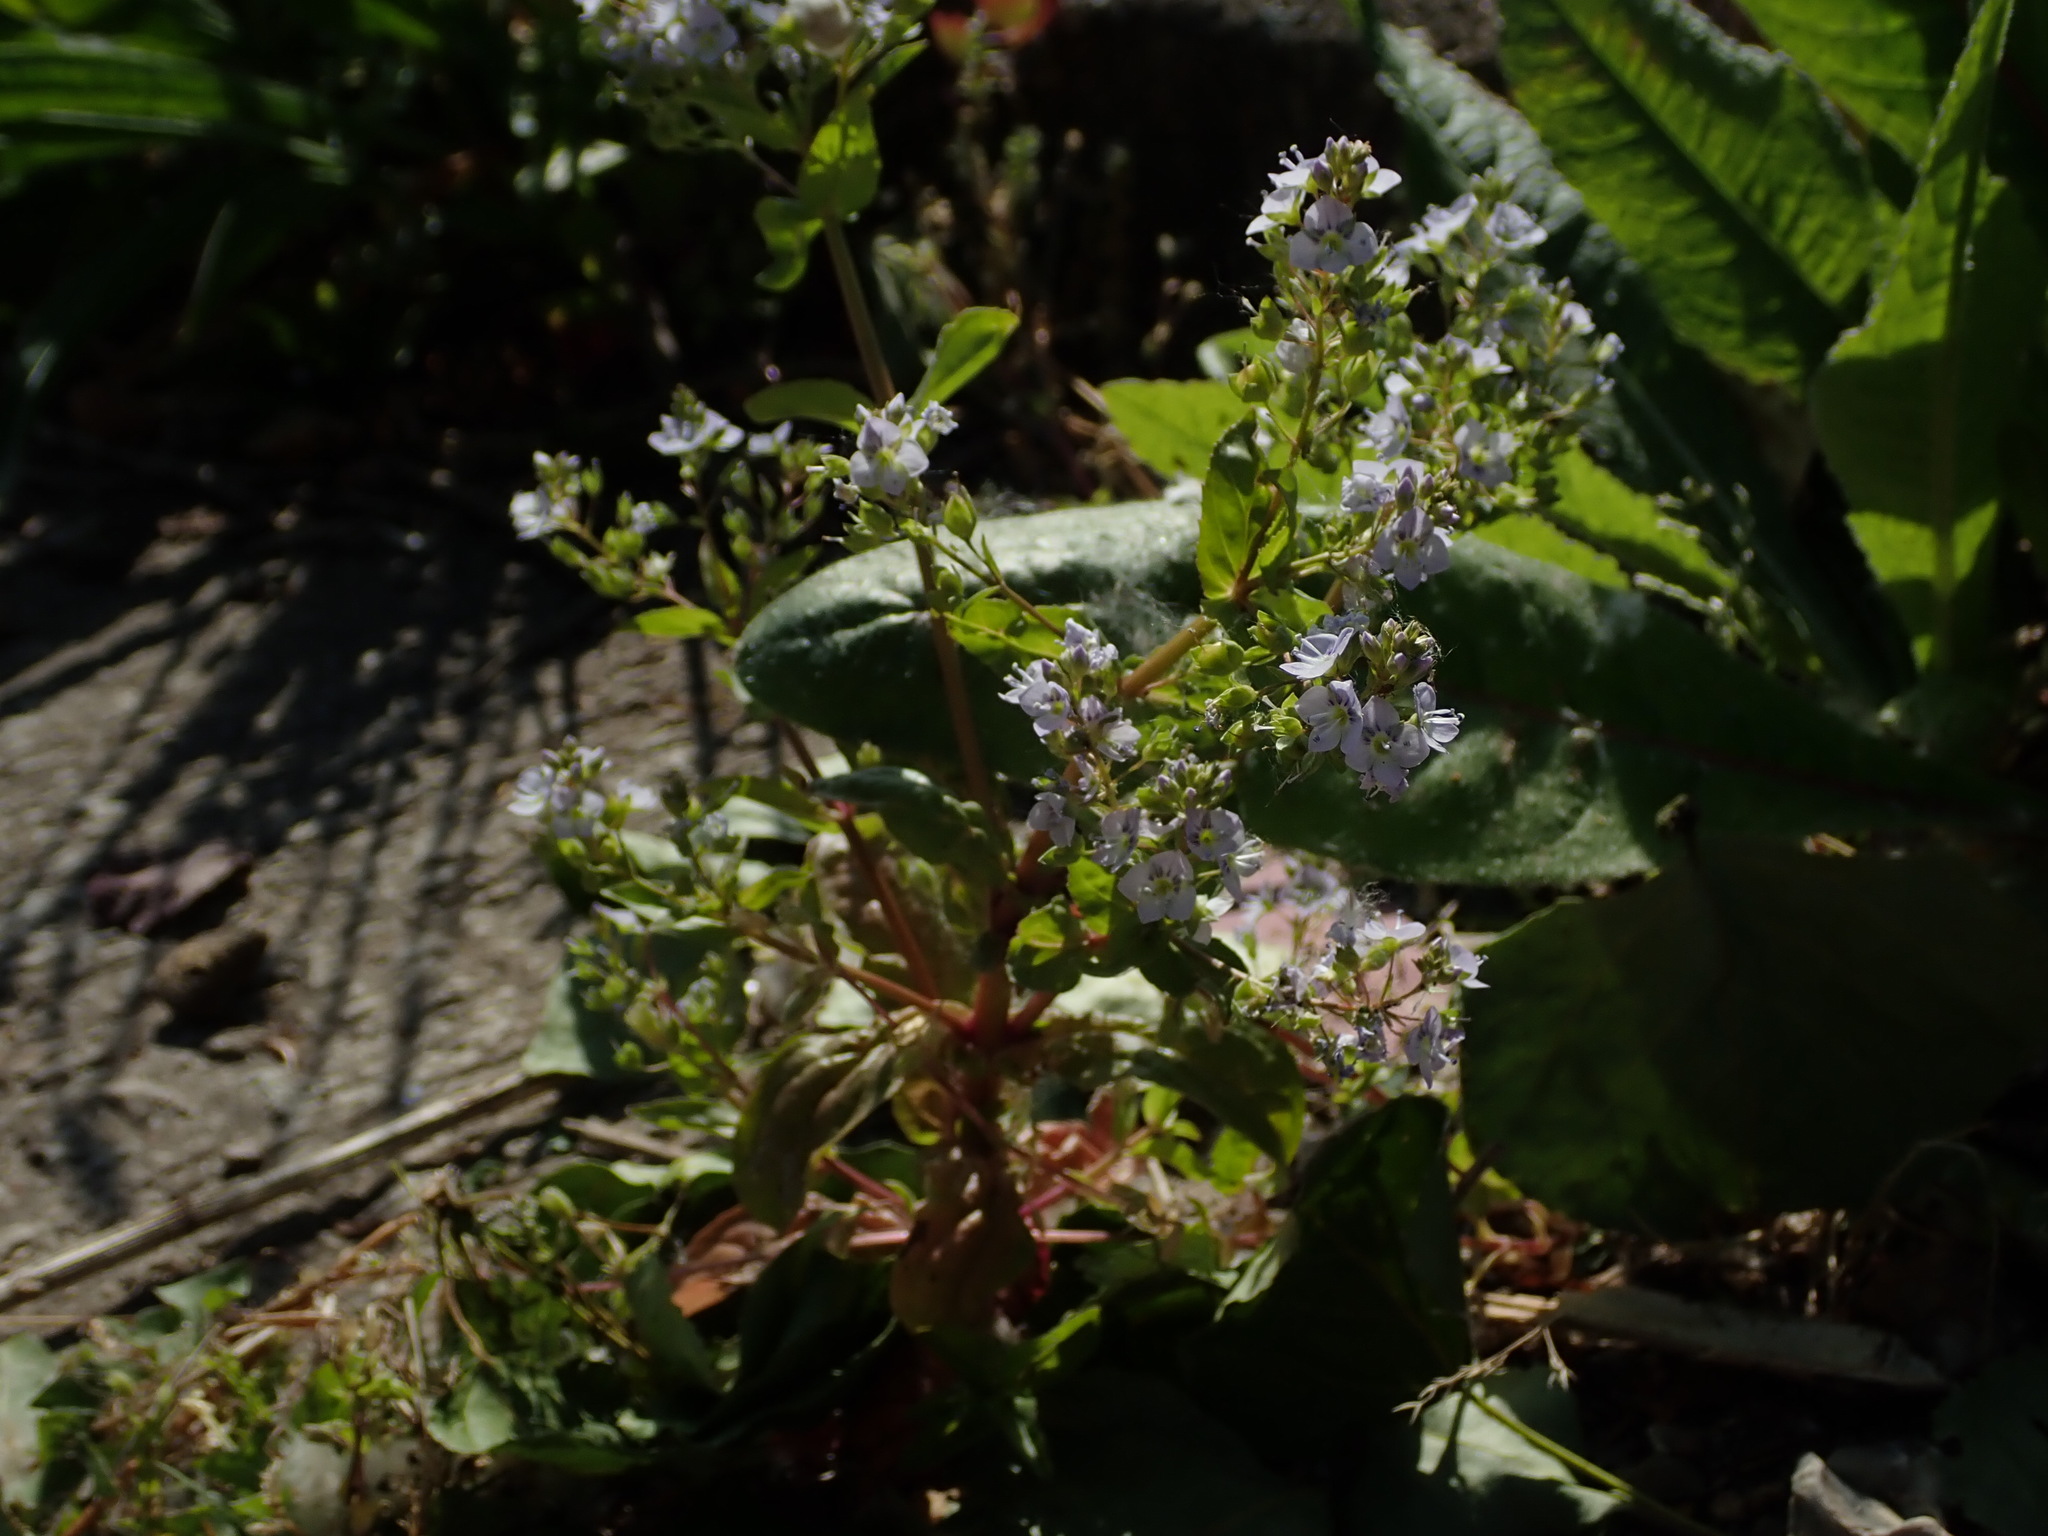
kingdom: Plantae
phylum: Tracheophyta
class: Magnoliopsida
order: Lamiales
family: Plantaginaceae
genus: Veronica
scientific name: Veronica anagallis-aquatica
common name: Water speedwell
